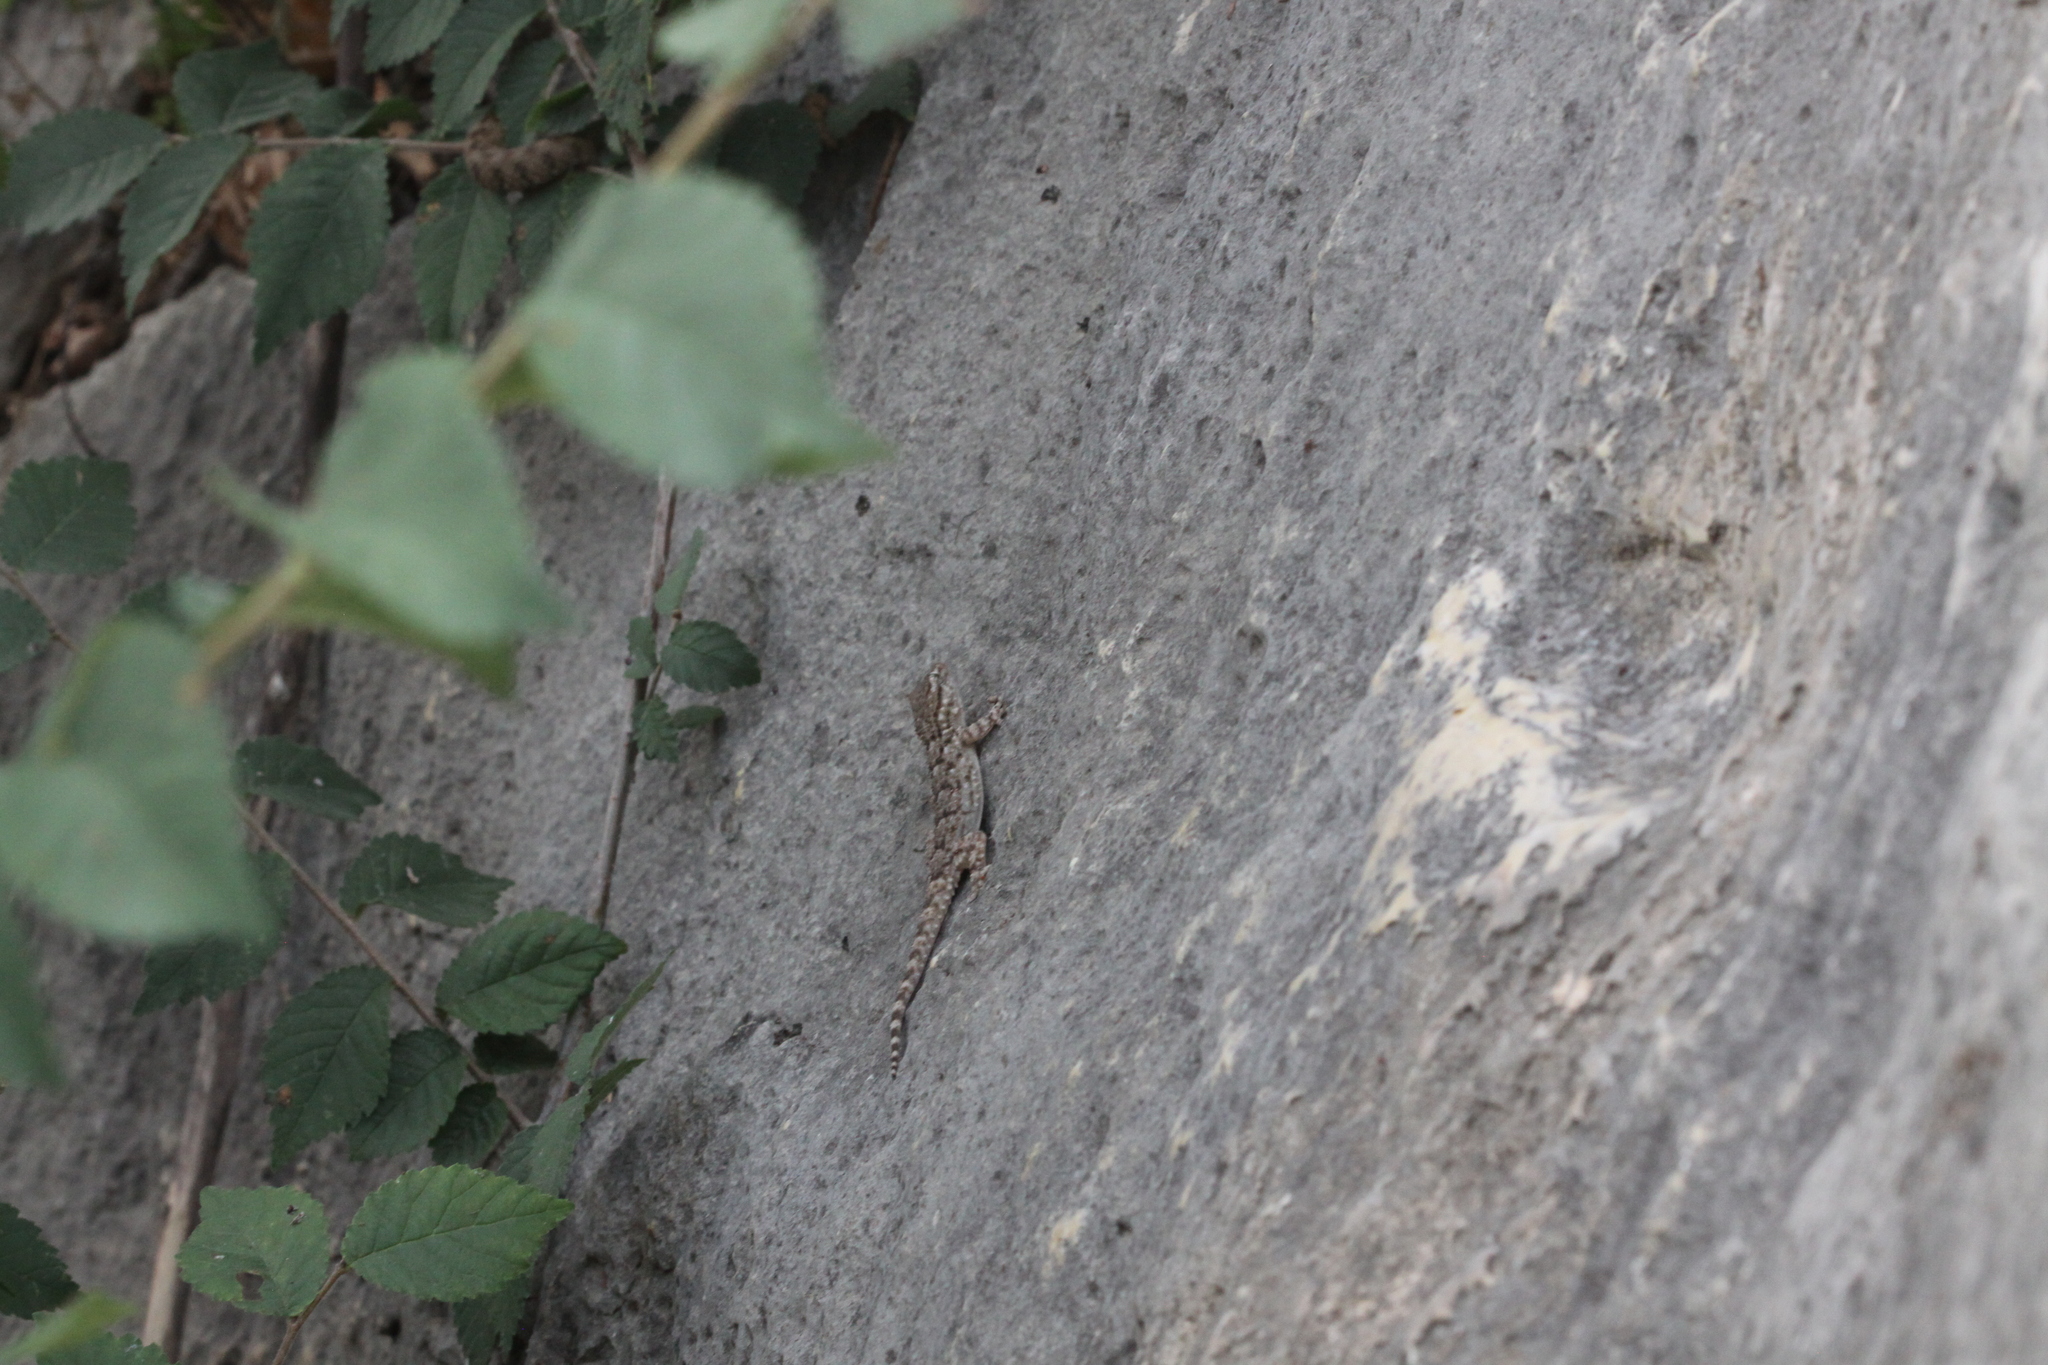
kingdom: Animalia
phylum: Chordata
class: Squamata
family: Phyllodactylidae
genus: Tarentola
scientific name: Tarentola mauritanica
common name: Moorish gecko
